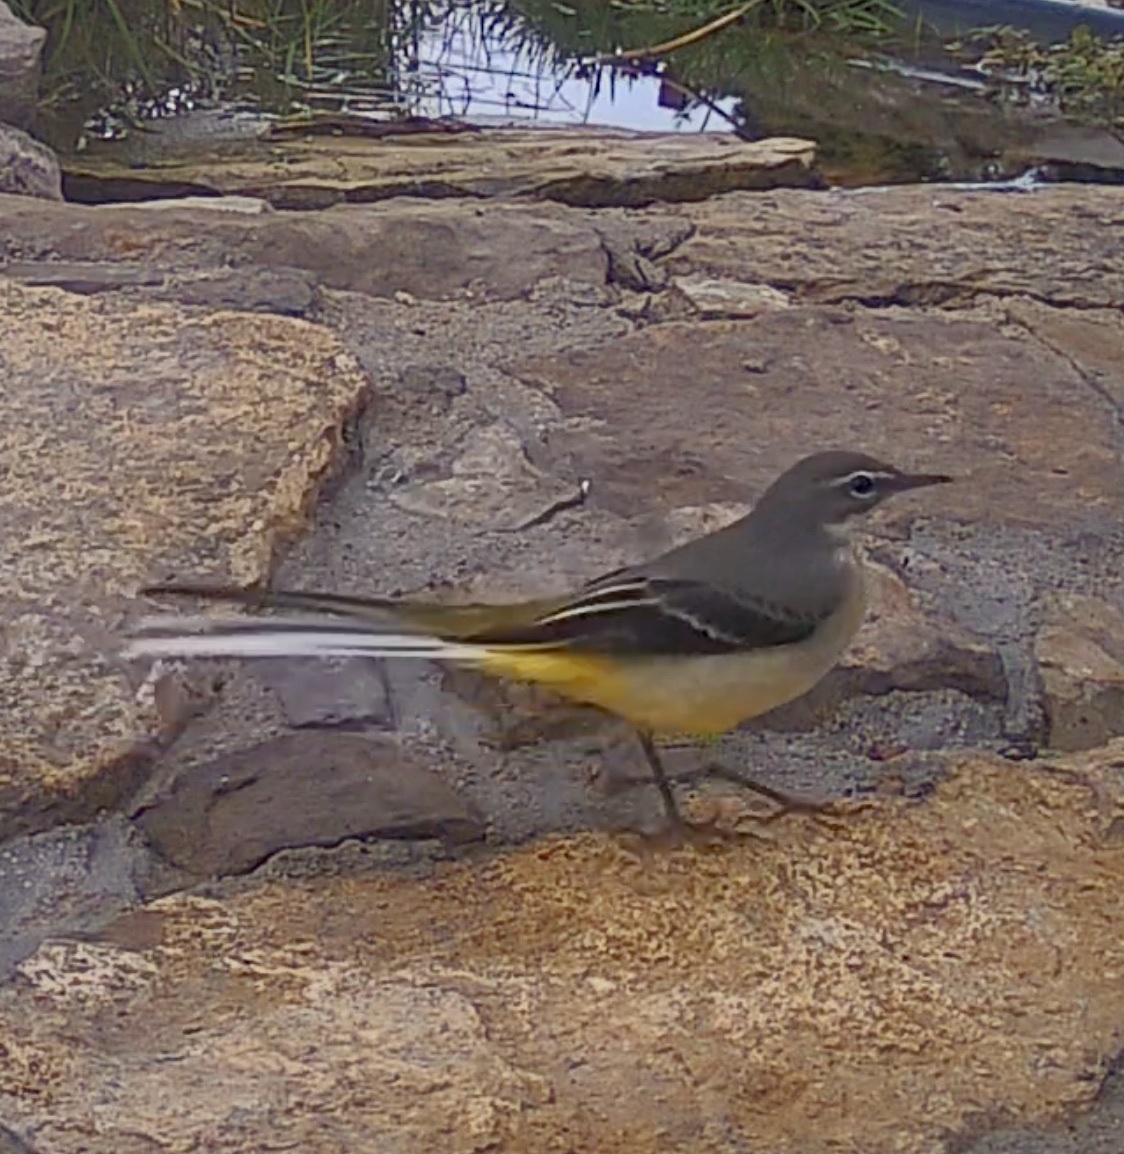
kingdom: Animalia
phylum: Chordata
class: Aves
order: Passeriformes
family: Motacillidae
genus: Motacilla
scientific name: Motacilla cinerea
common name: Grey wagtail
